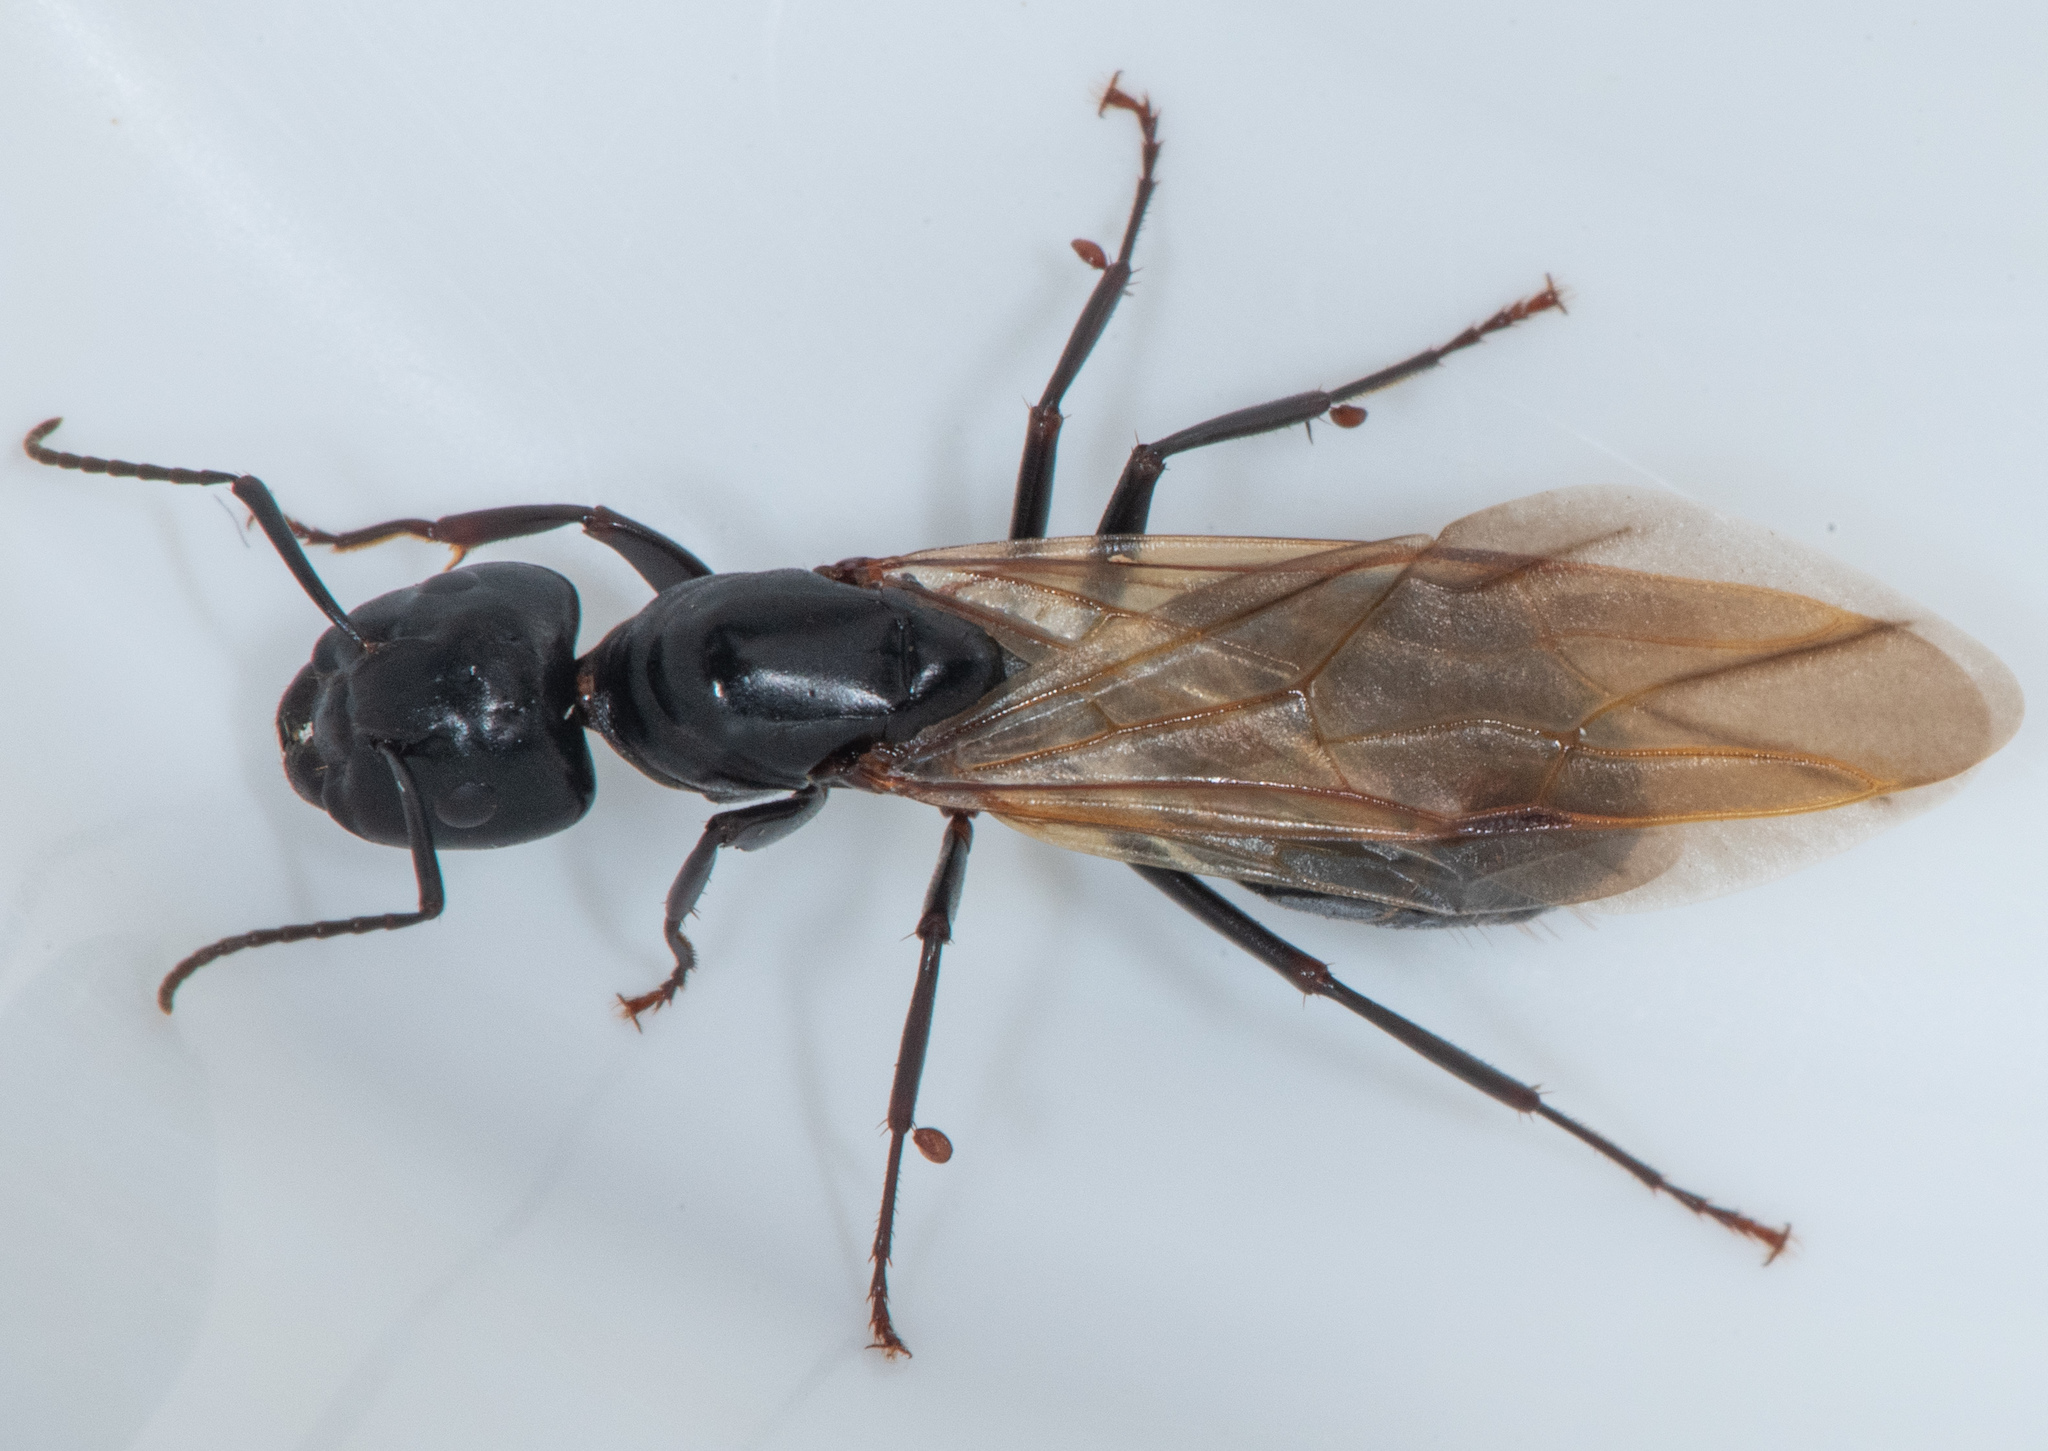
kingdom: Animalia
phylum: Arthropoda
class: Insecta
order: Hymenoptera
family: Formicidae
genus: Camponotus
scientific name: Camponotus laevigatus
